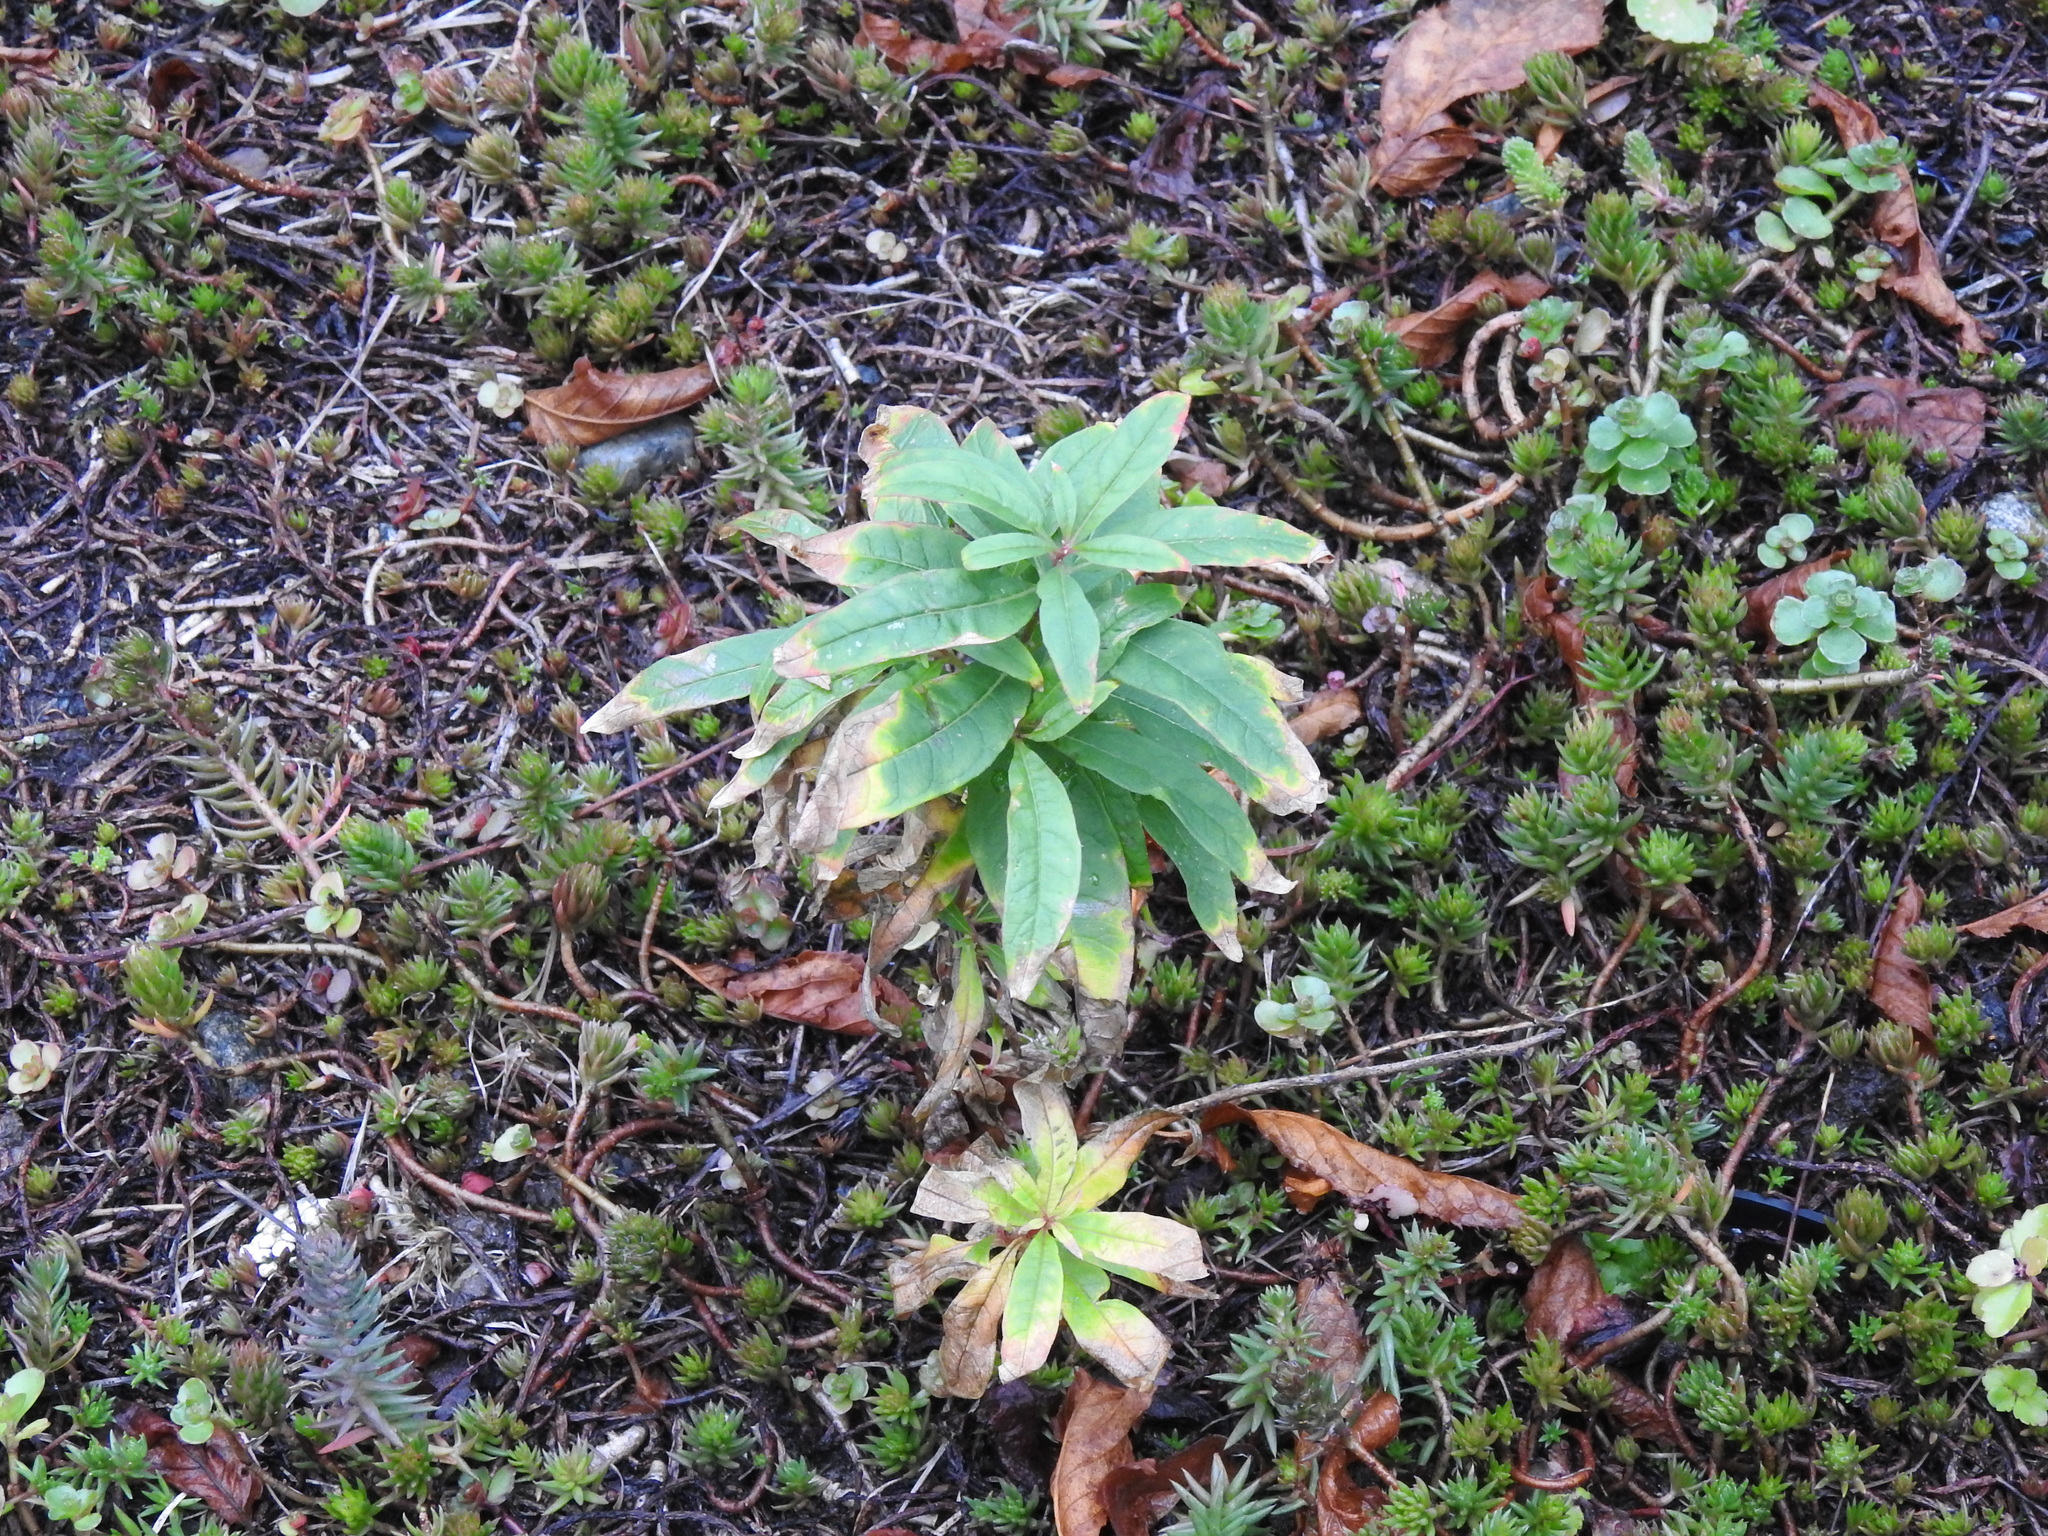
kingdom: Plantae
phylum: Tracheophyta
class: Magnoliopsida
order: Myrtales
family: Onagraceae
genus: Chamaenerion
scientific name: Chamaenerion angustifolium
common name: Fireweed
